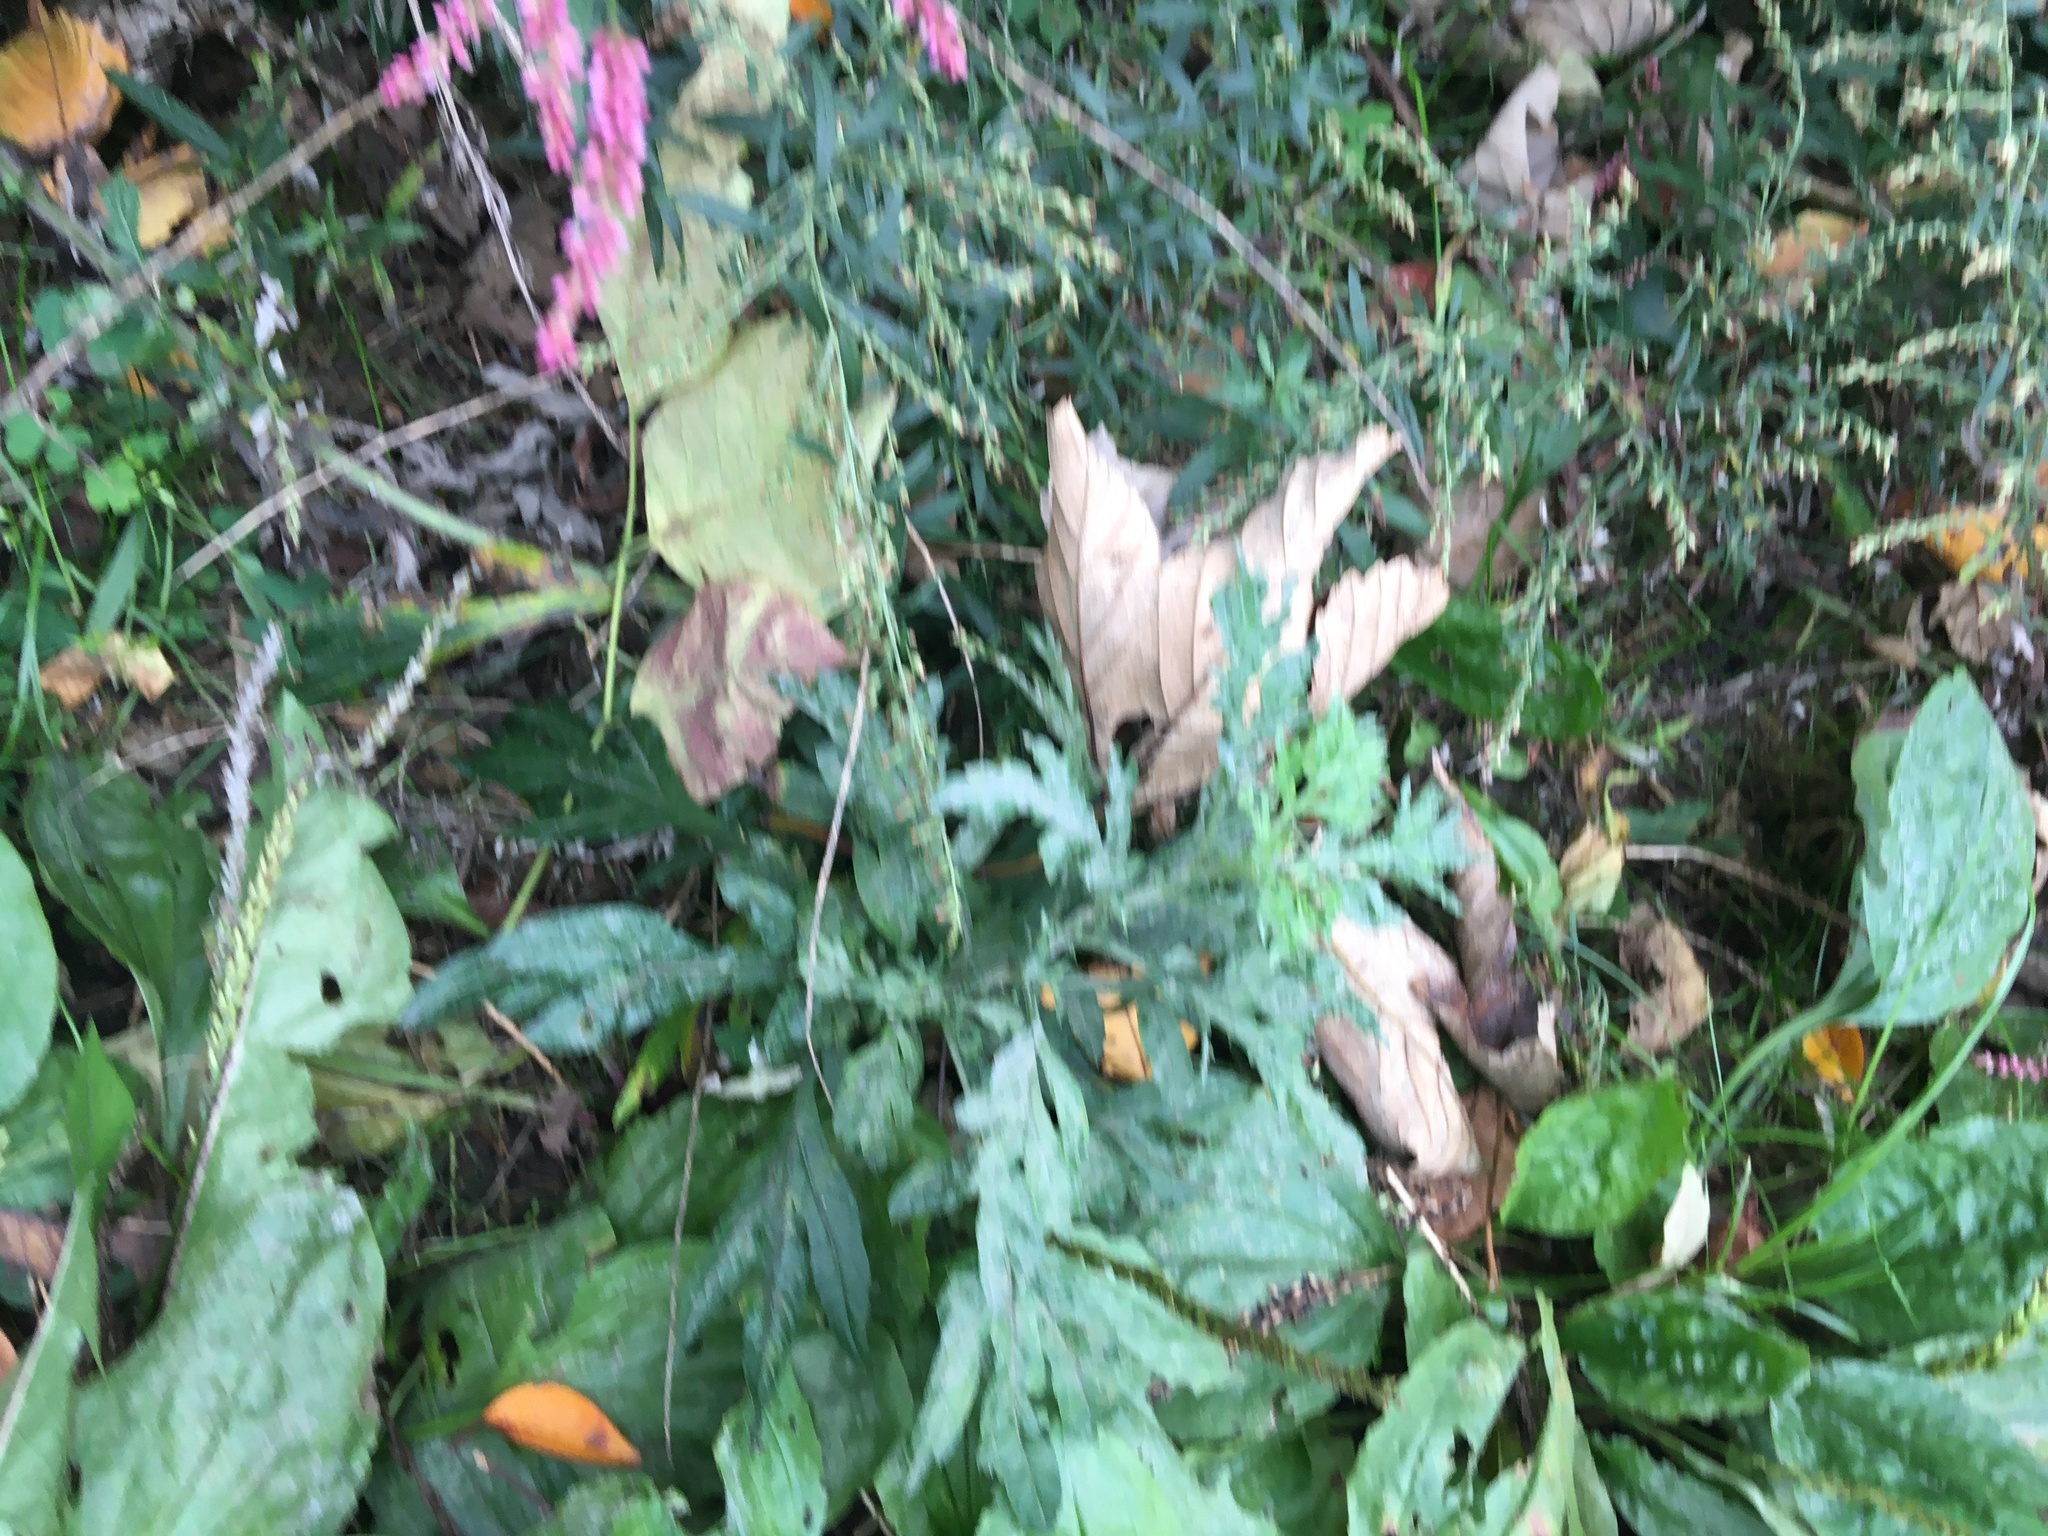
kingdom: Plantae
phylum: Tracheophyta
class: Magnoliopsida
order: Asterales
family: Asteraceae
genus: Artemisia
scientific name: Artemisia vulgaris
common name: Mugwort
